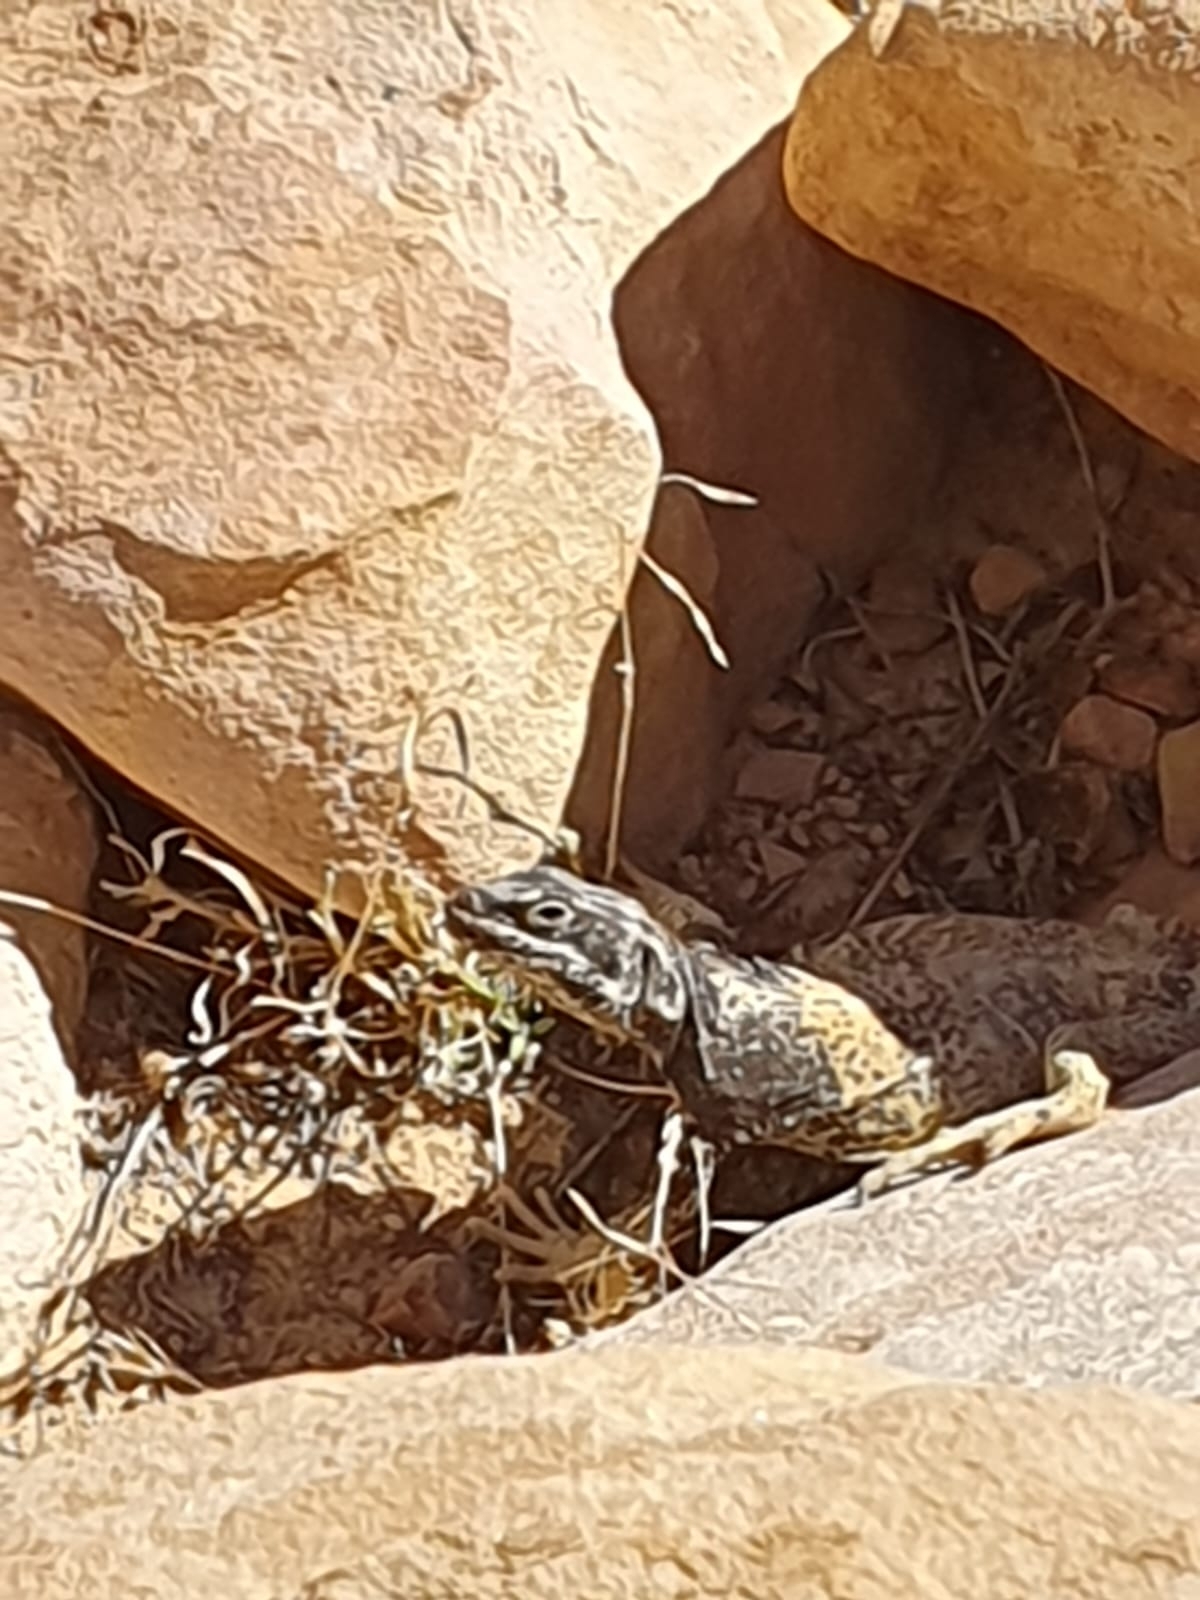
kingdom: Animalia
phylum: Chordata
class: Squamata
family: Iguanidae
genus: Sauromalus
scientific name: Sauromalus ater
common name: Northern chuckwalla
